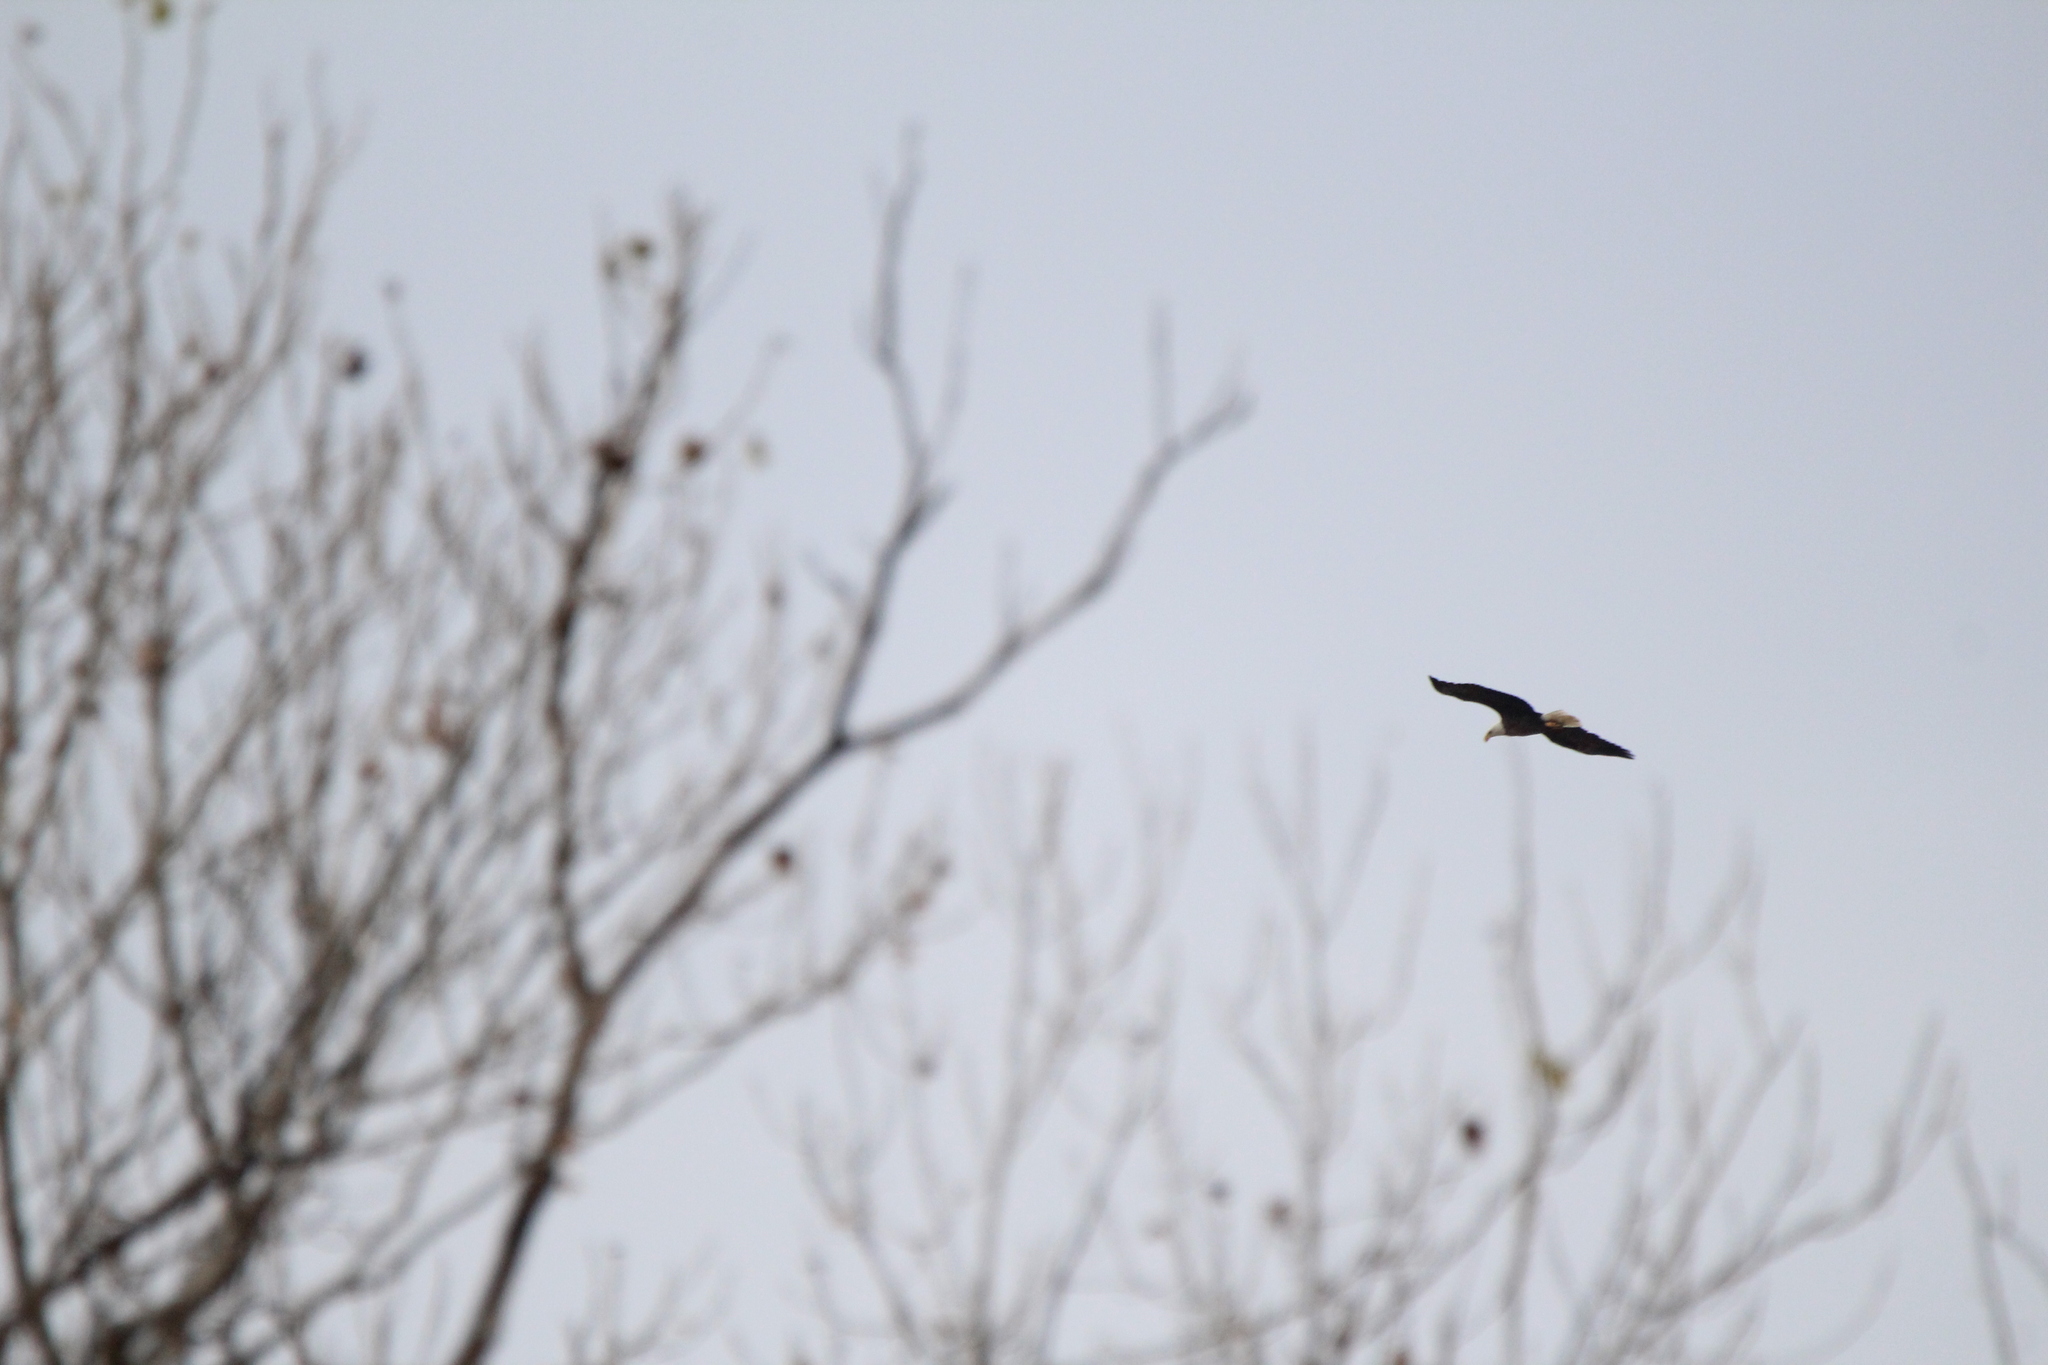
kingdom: Animalia
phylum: Chordata
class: Aves
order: Accipitriformes
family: Accipitridae
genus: Haliaeetus
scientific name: Haliaeetus leucocephalus
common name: Bald eagle
